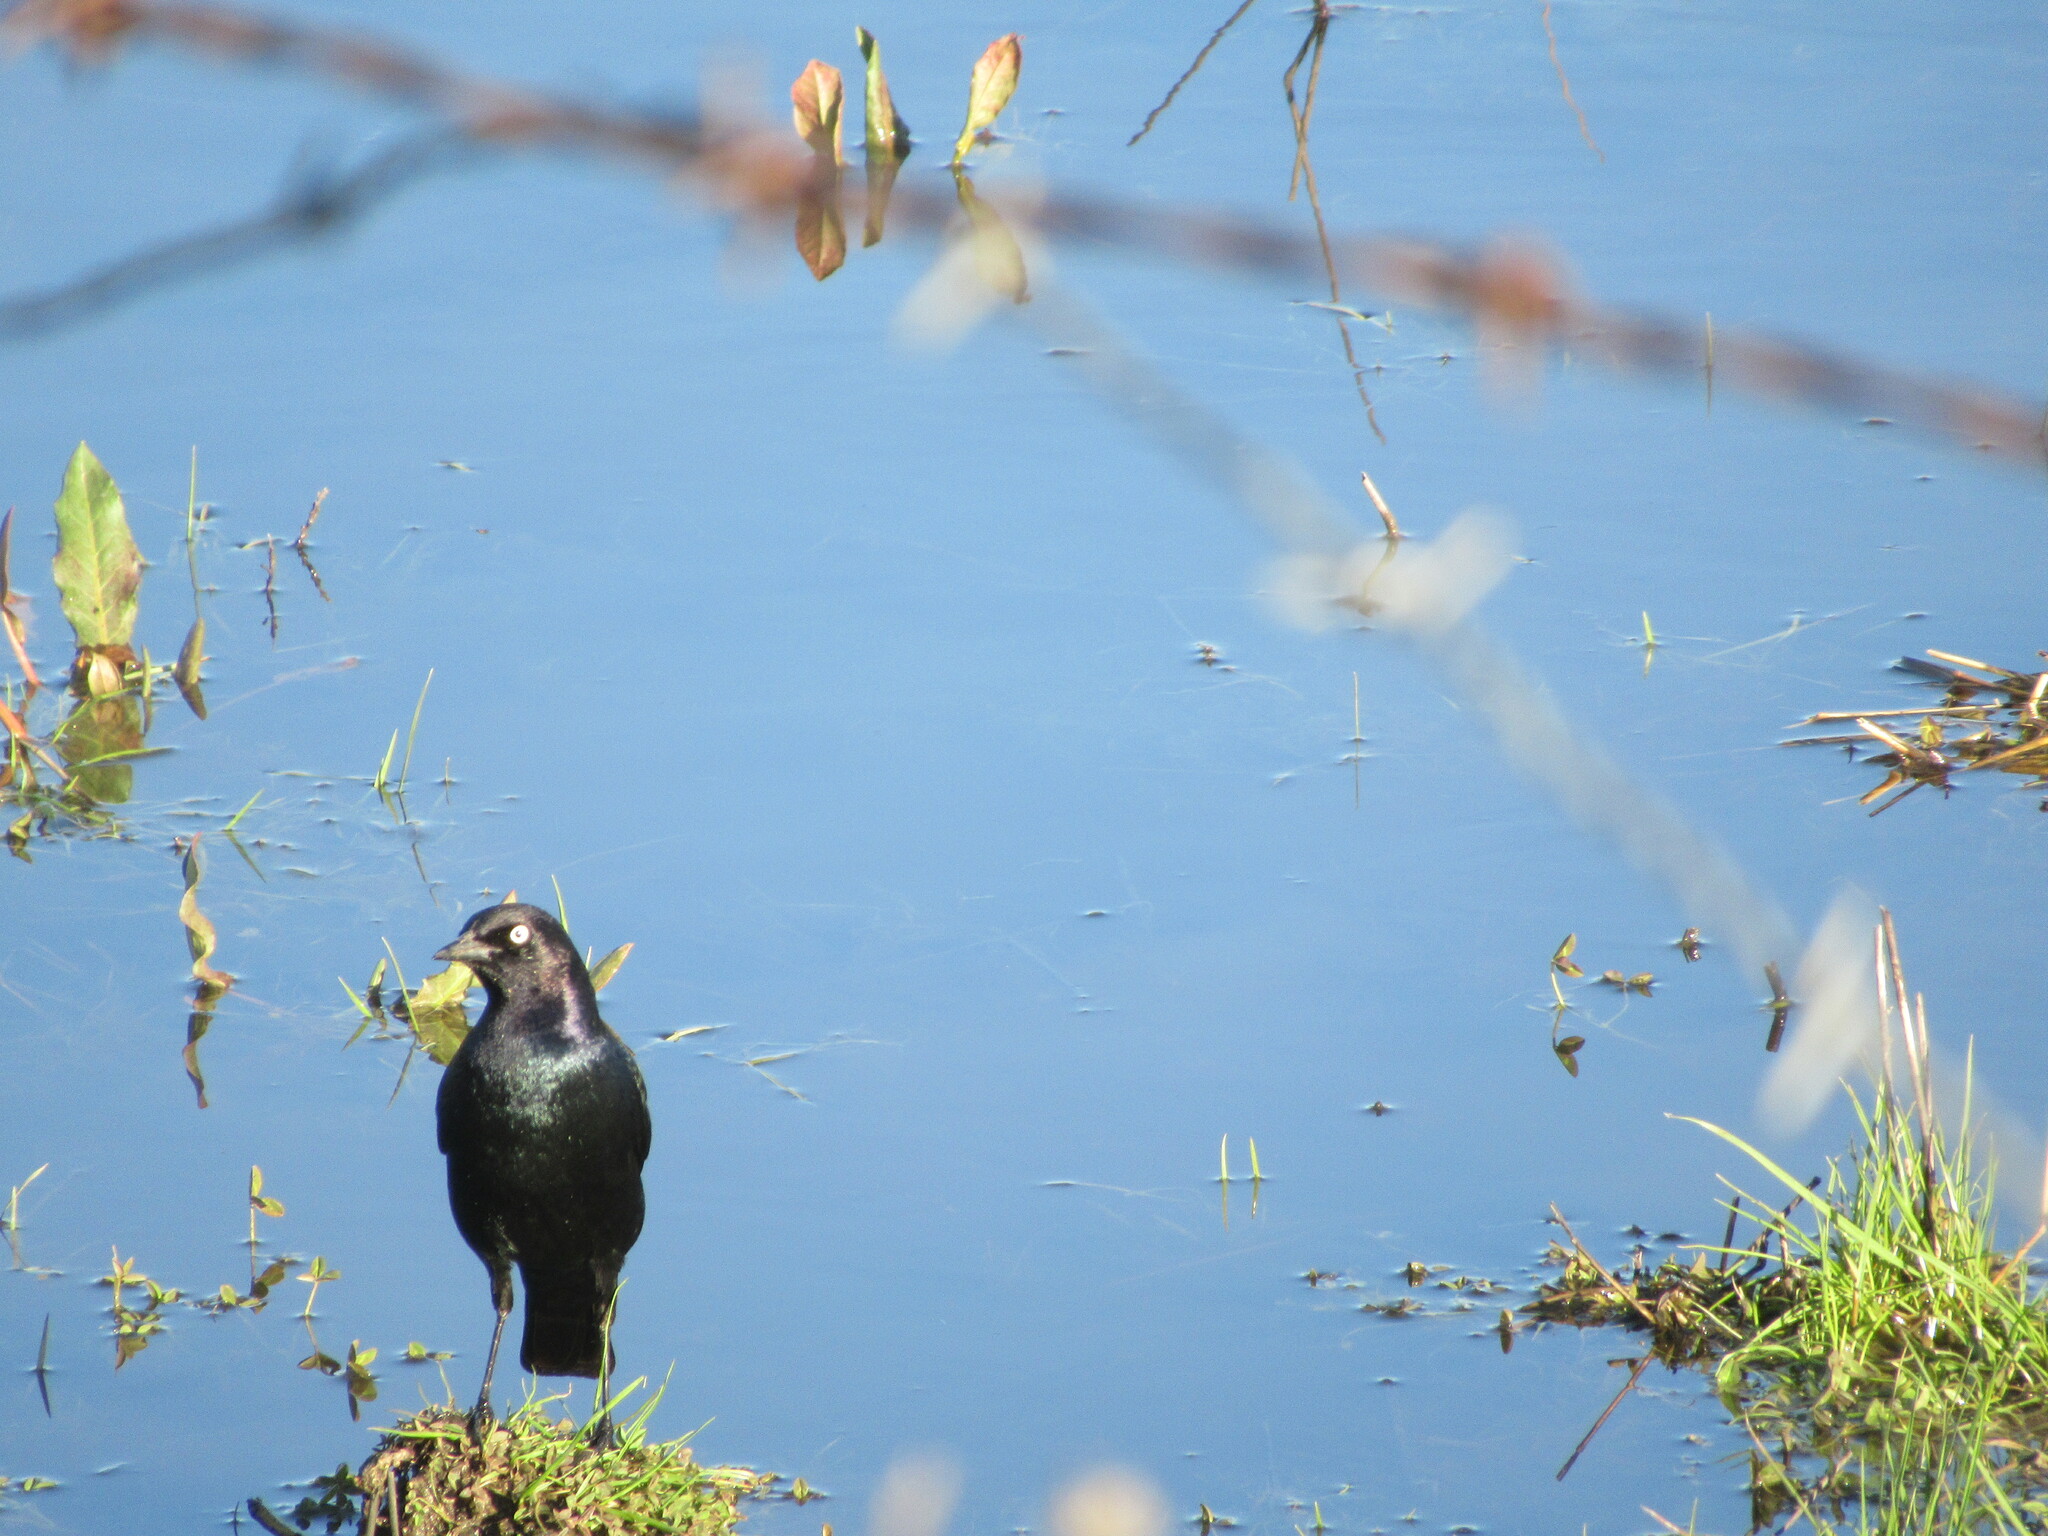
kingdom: Animalia
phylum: Chordata
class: Aves
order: Passeriformes
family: Icteridae
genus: Euphagus
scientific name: Euphagus cyanocephalus
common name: Brewer's blackbird
